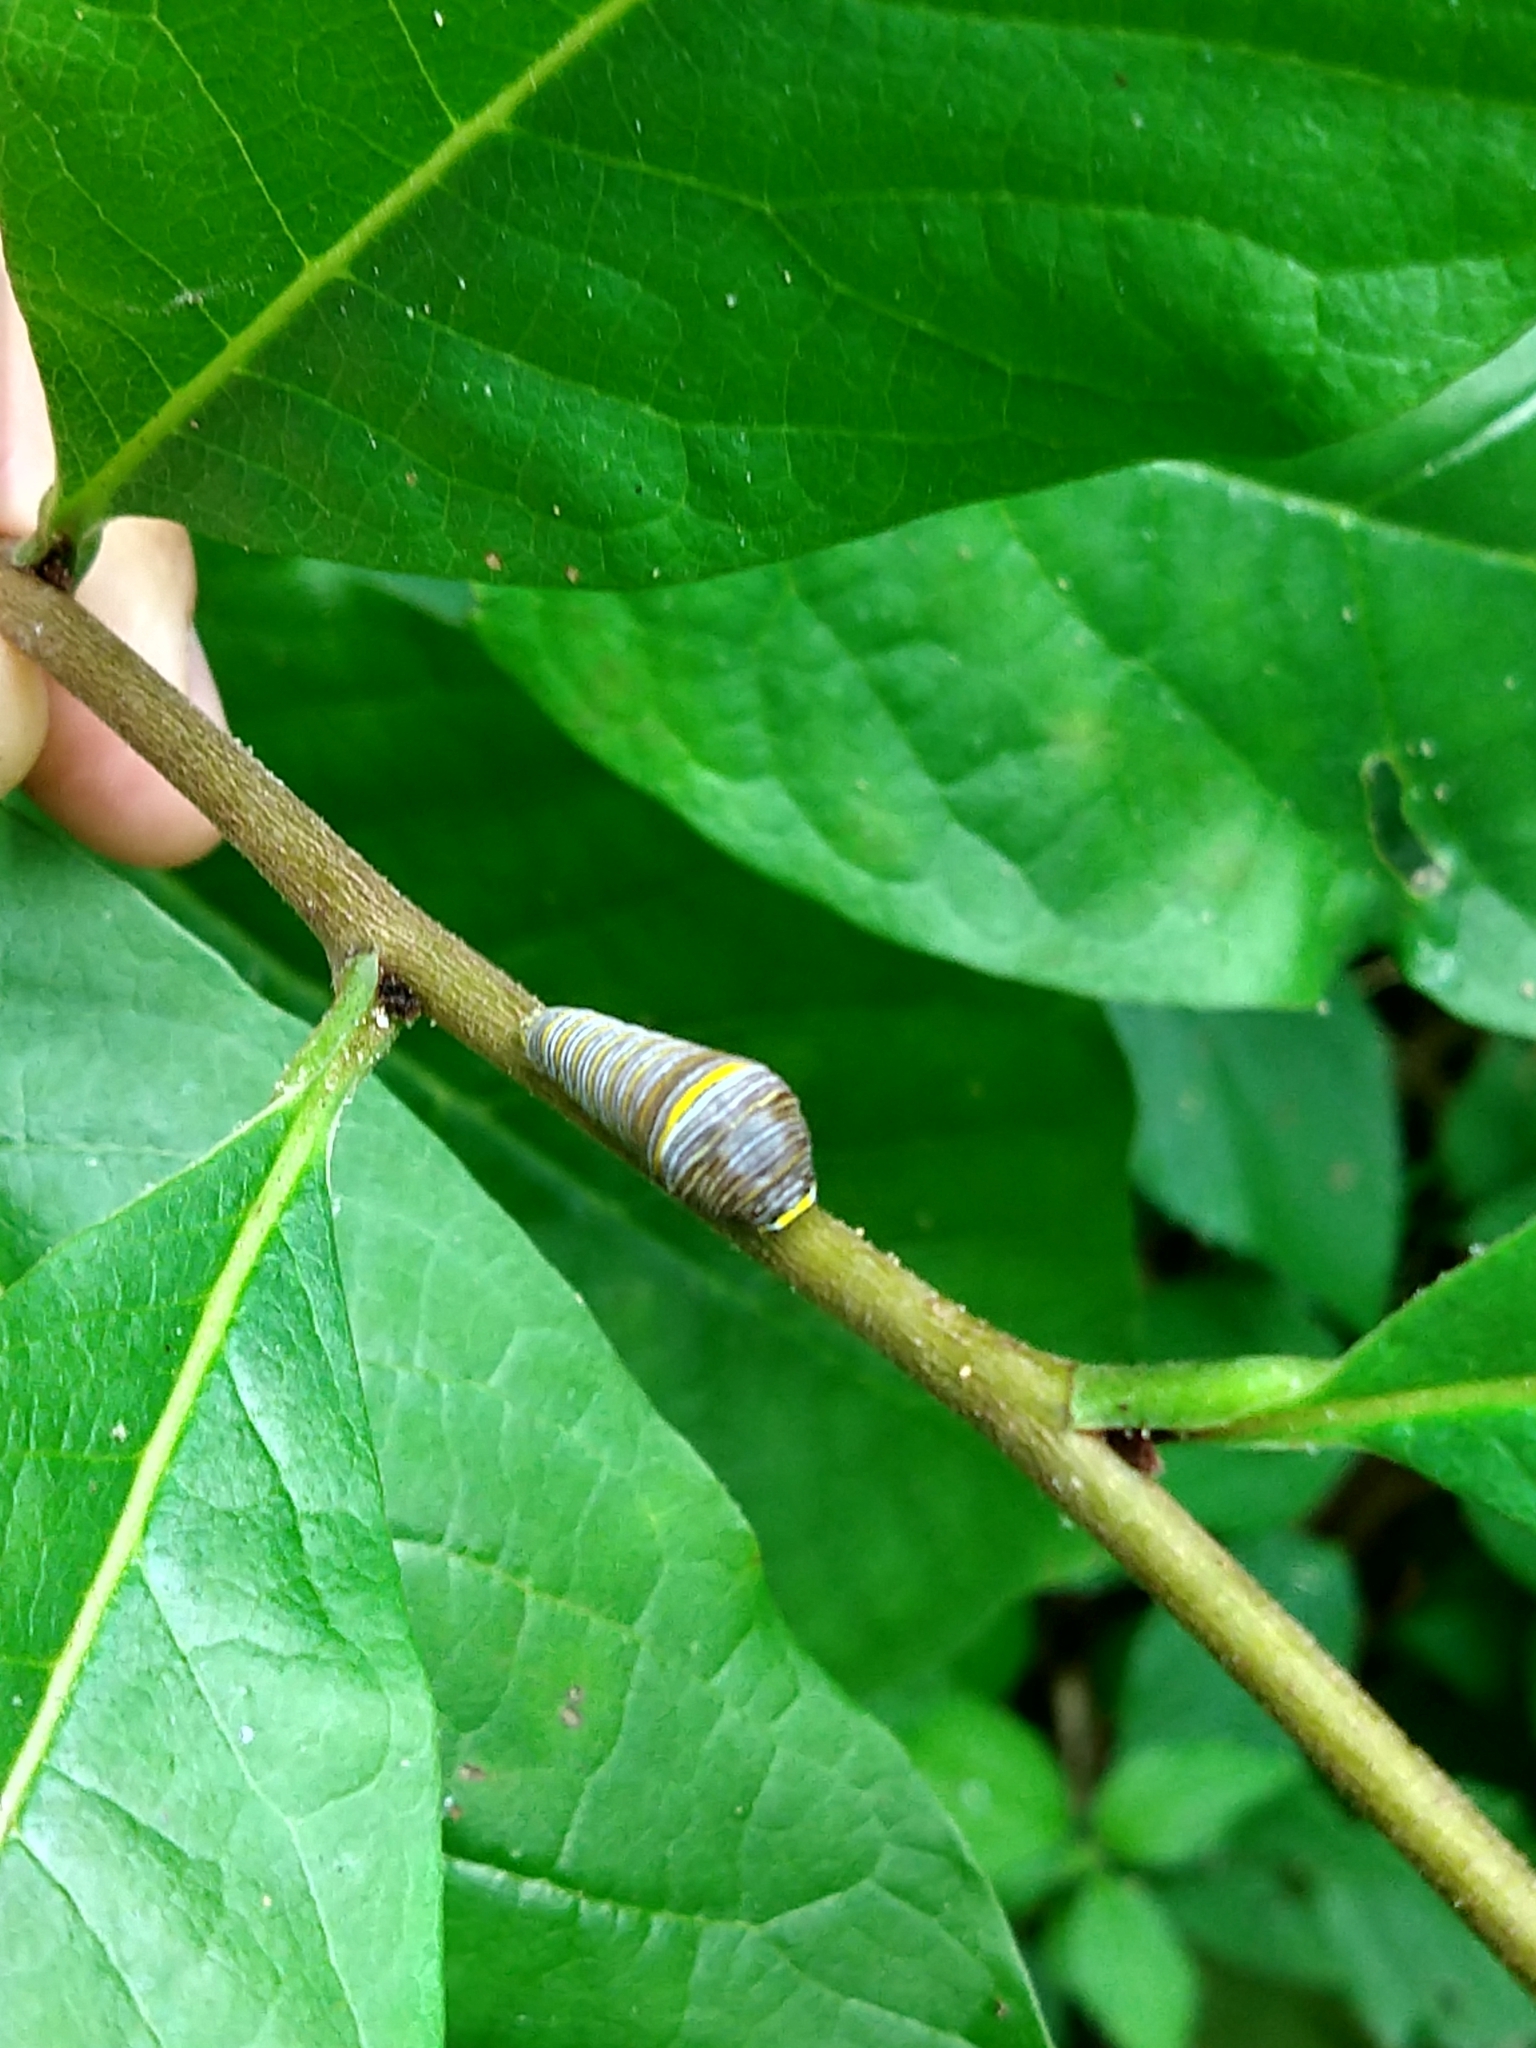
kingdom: Animalia
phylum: Arthropoda
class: Insecta
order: Lepidoptera
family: Papilionidae
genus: Protographium
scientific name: Protographium marcellus
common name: Zebra swallowtail
